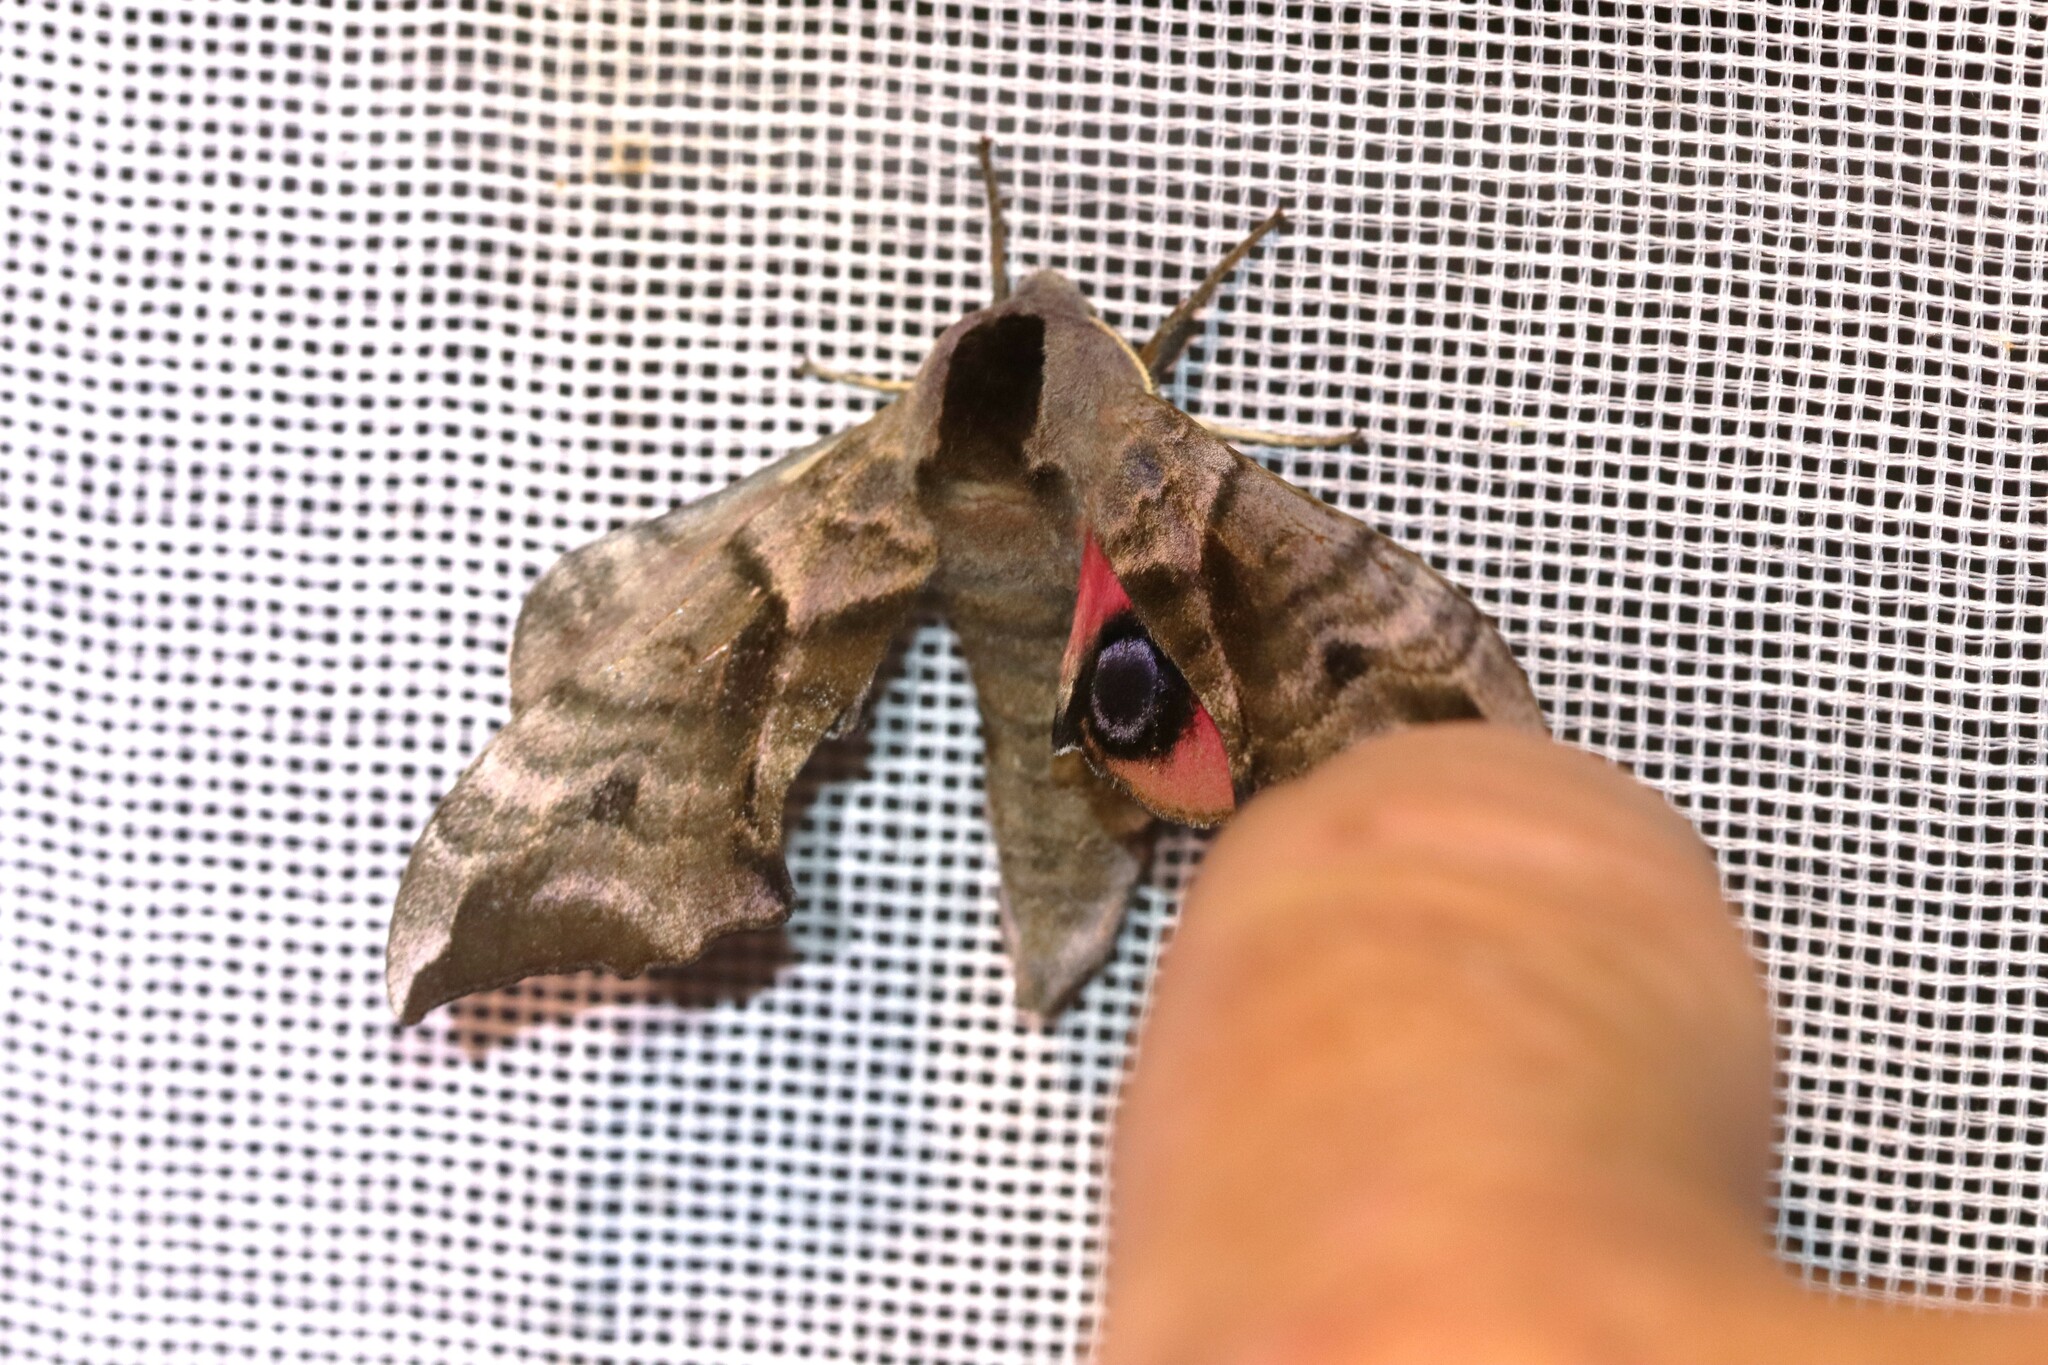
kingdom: Animalia
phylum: Arthropoda
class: Insecta
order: Lepidoptera
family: Sphingidae
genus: Smerinthus
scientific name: Smerinthus ocellata
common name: Eyed hawk-moth
